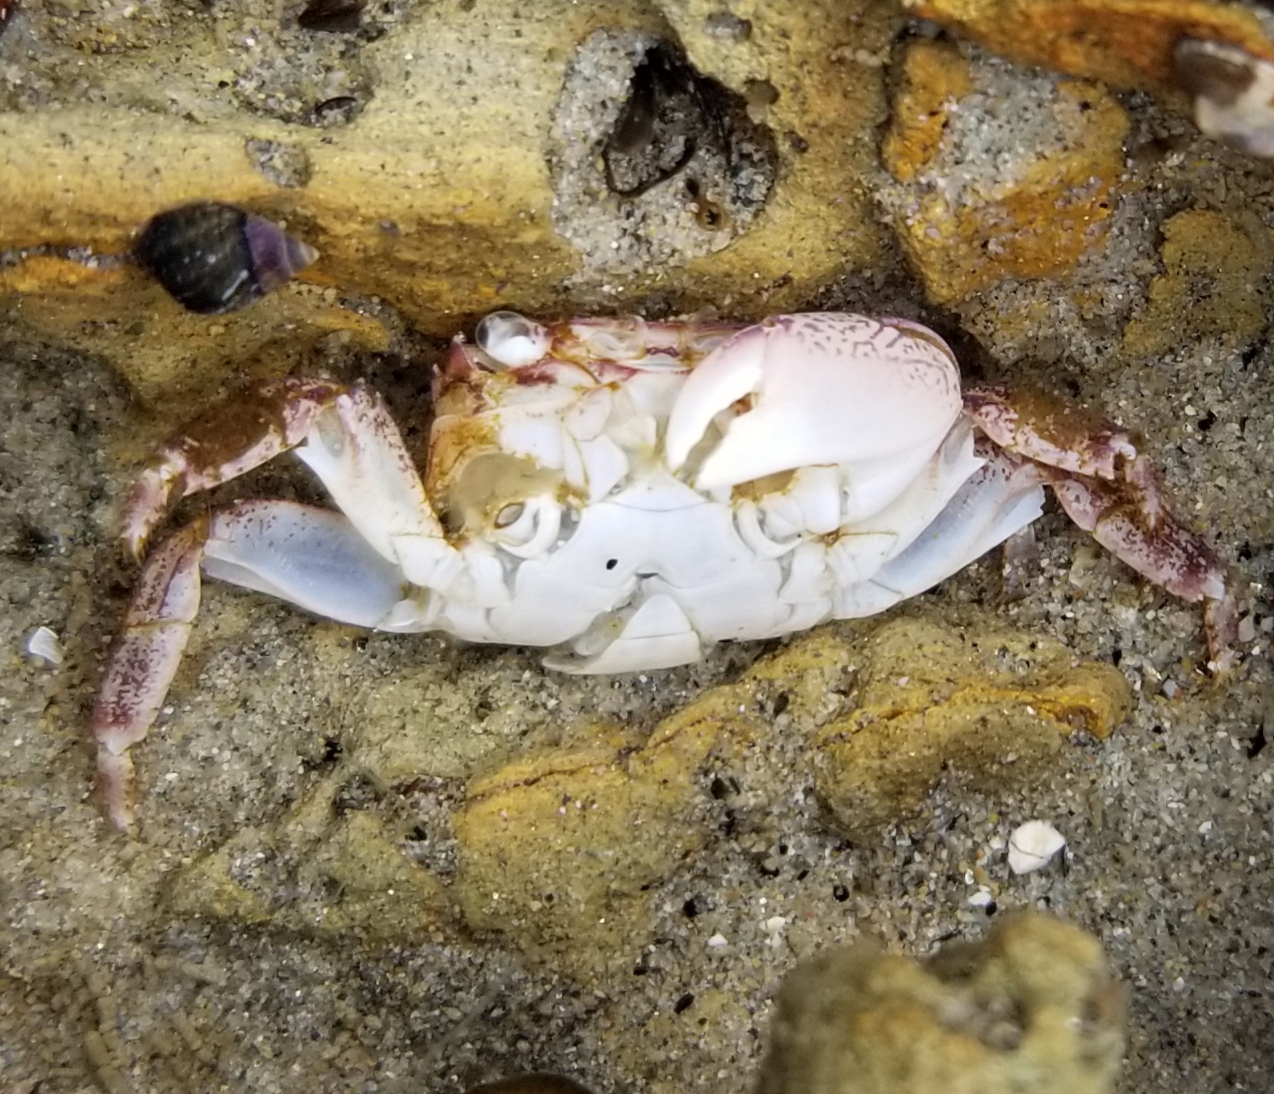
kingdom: Animalia
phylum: Arthropoda
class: Malacostraca
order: Decapoda
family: Grapsidae
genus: Pachygrapsus
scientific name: Pachygrapsus crassipes
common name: Striped shore crab
